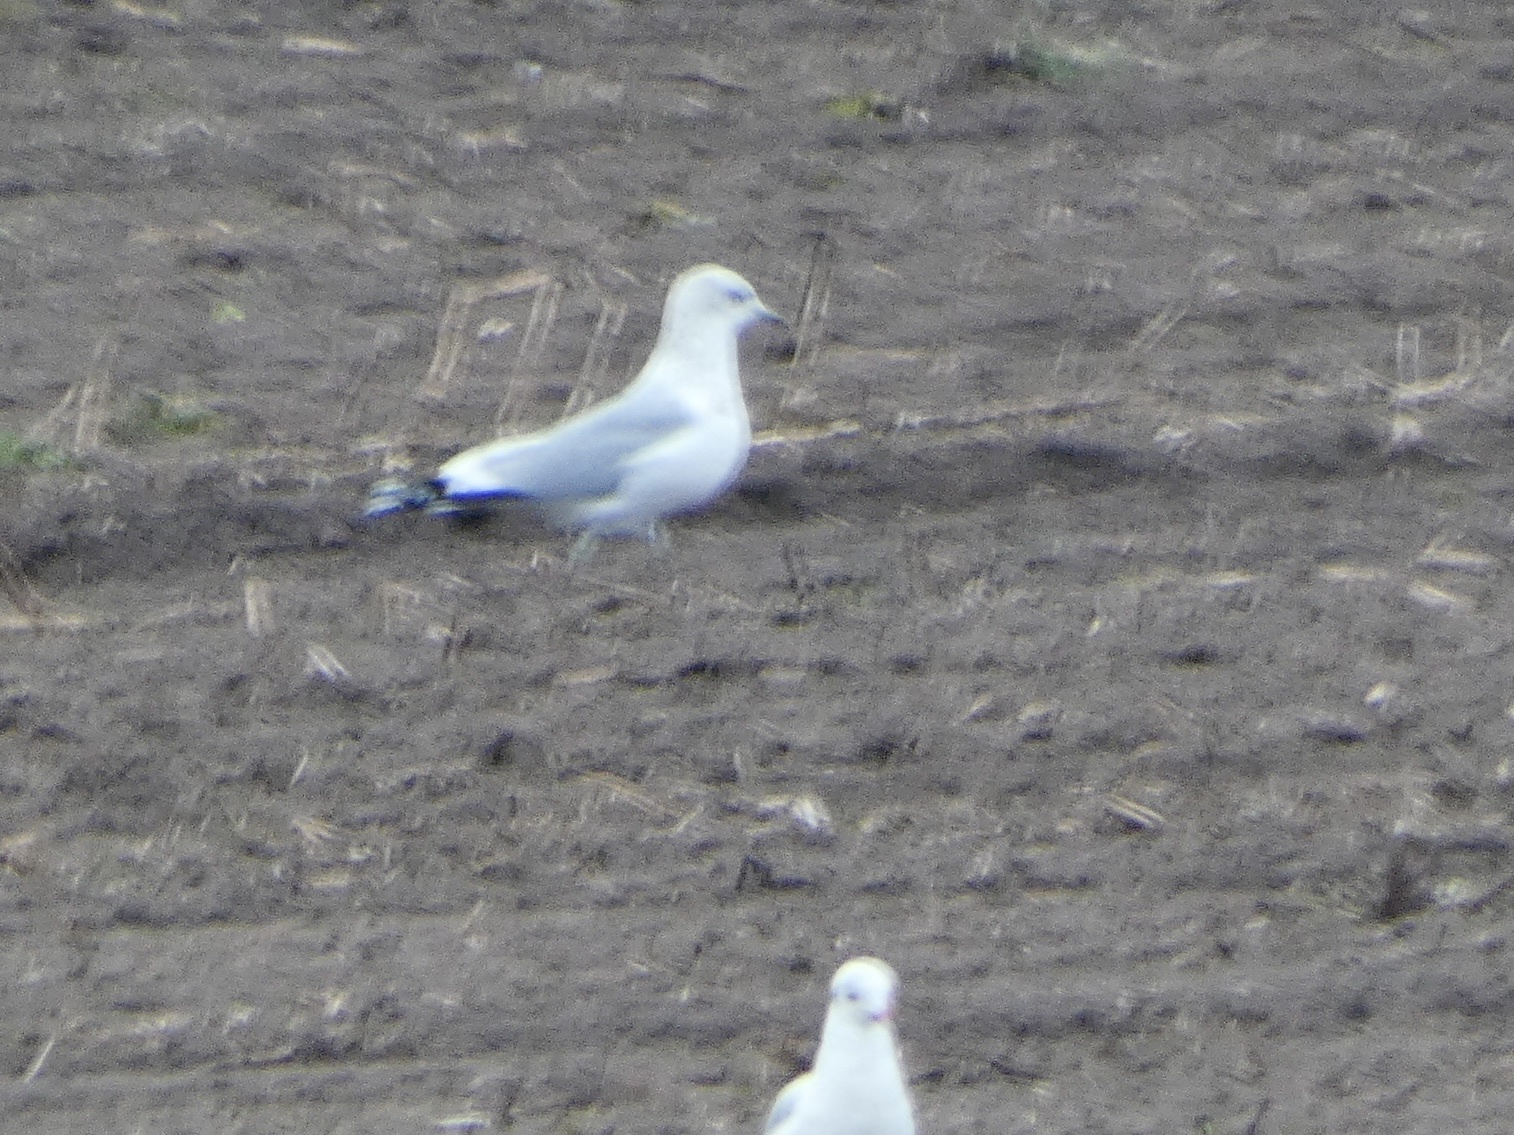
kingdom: Animalia
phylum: Chordata
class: Aves
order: Charadriiformes
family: Laridae
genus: Larus
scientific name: Larus canus
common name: Mew gull
